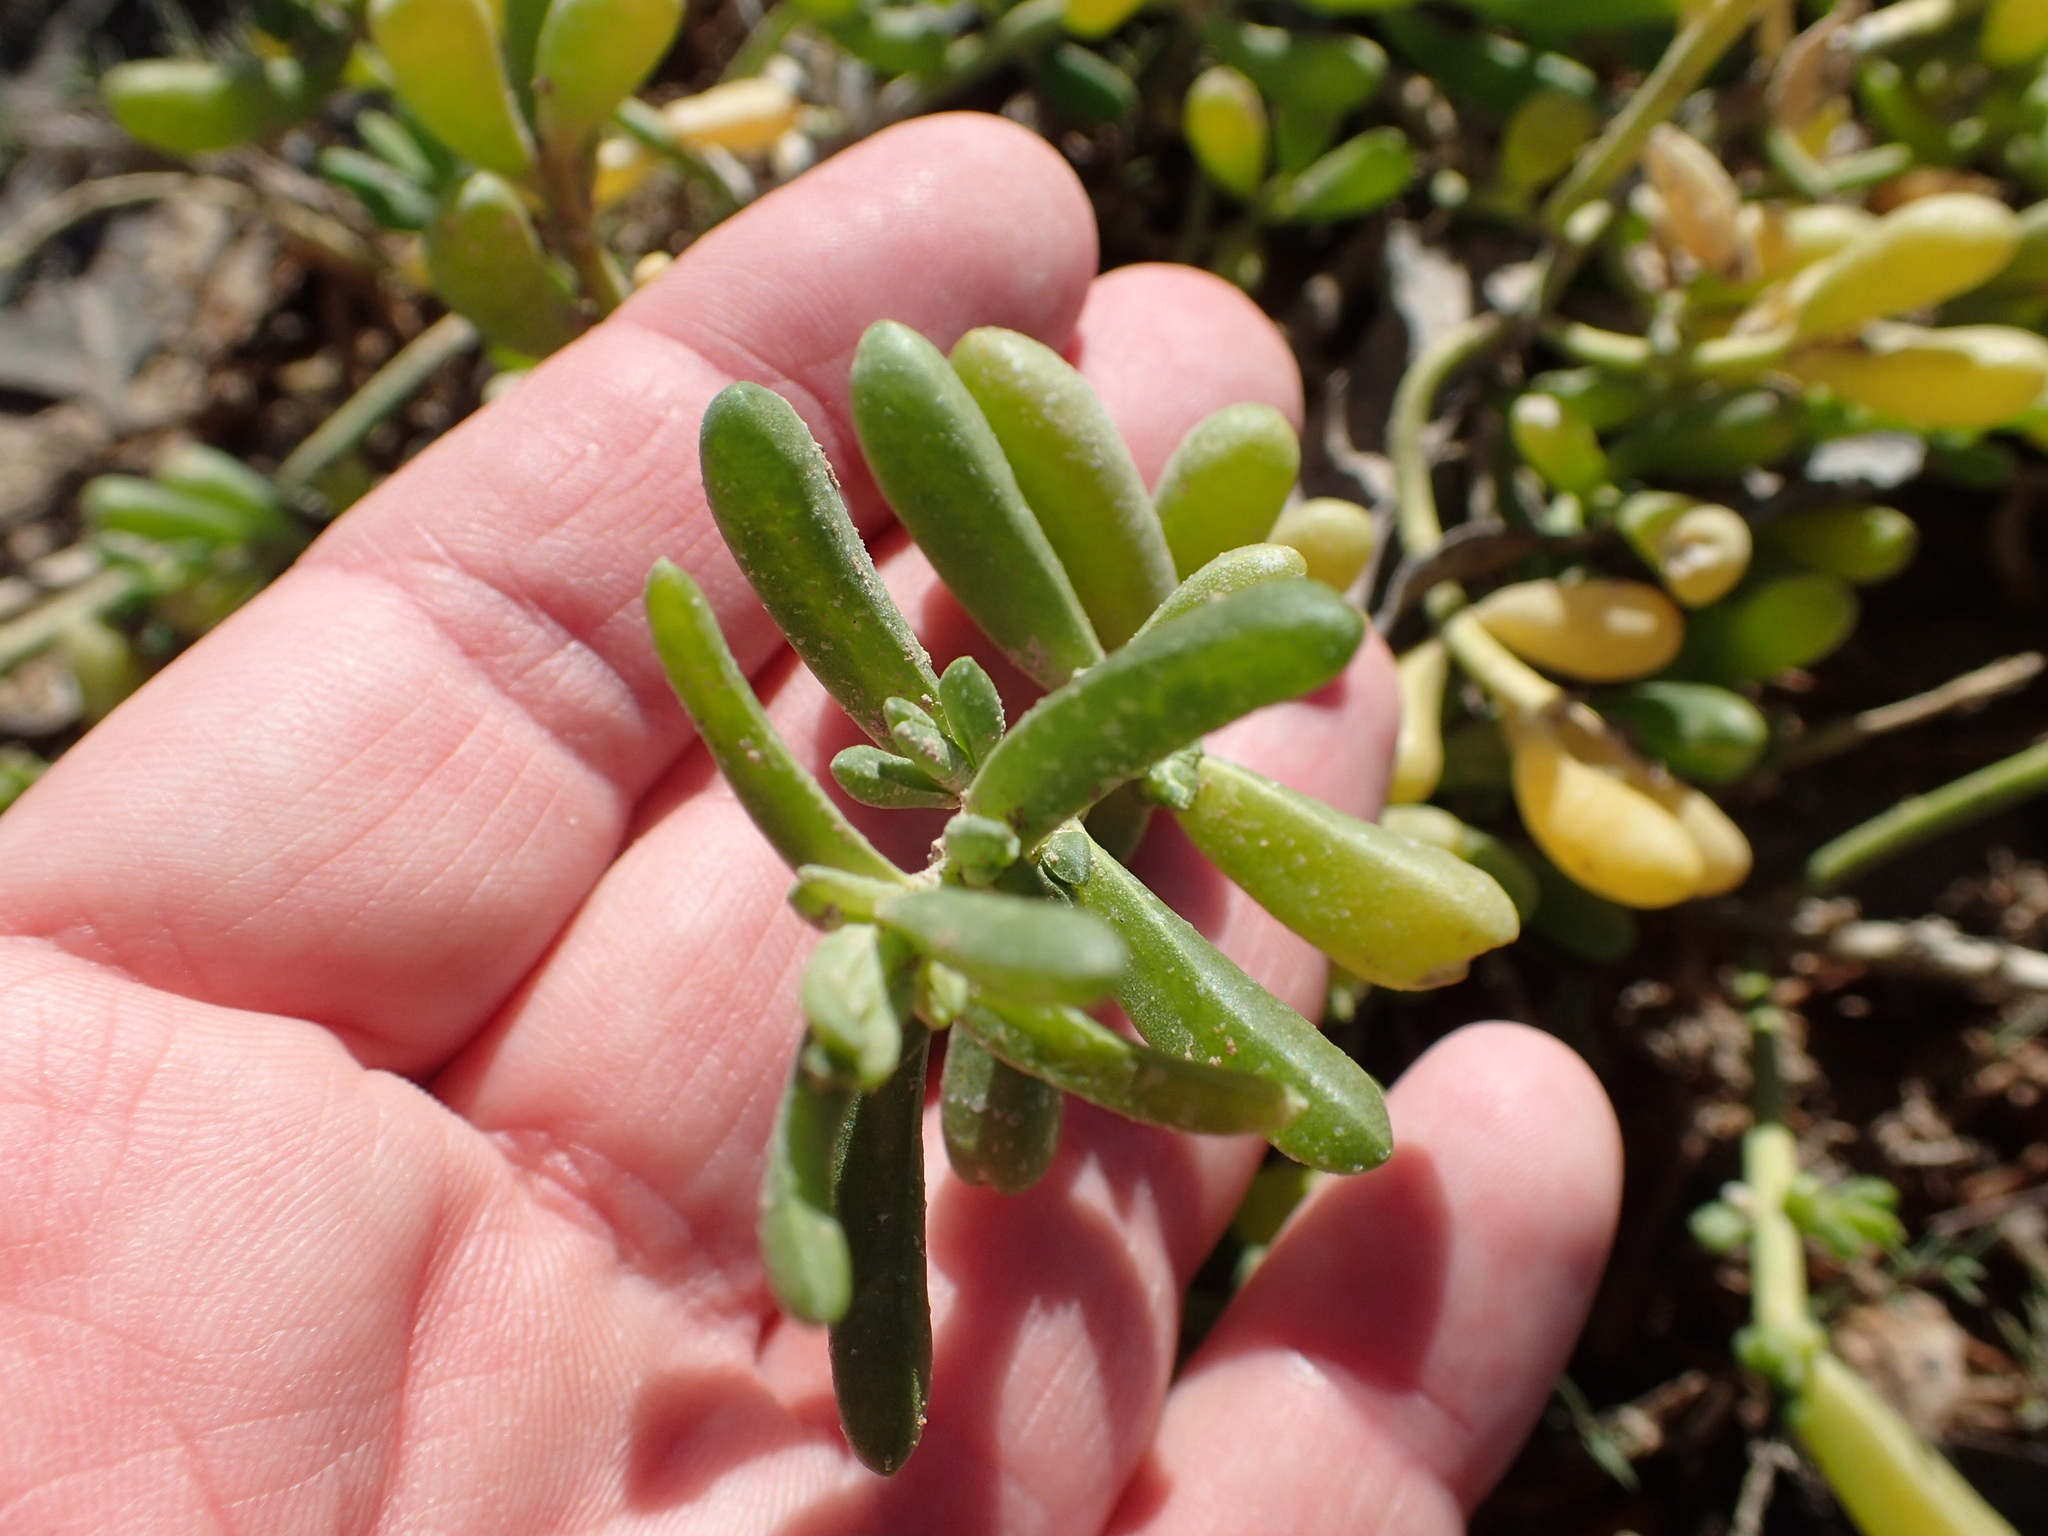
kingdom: Plantae
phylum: Tracheophyta
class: Magnoliopsida
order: Brassicales
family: Bataceae
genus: Batis
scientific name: Batis maritima
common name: Turtleweed
